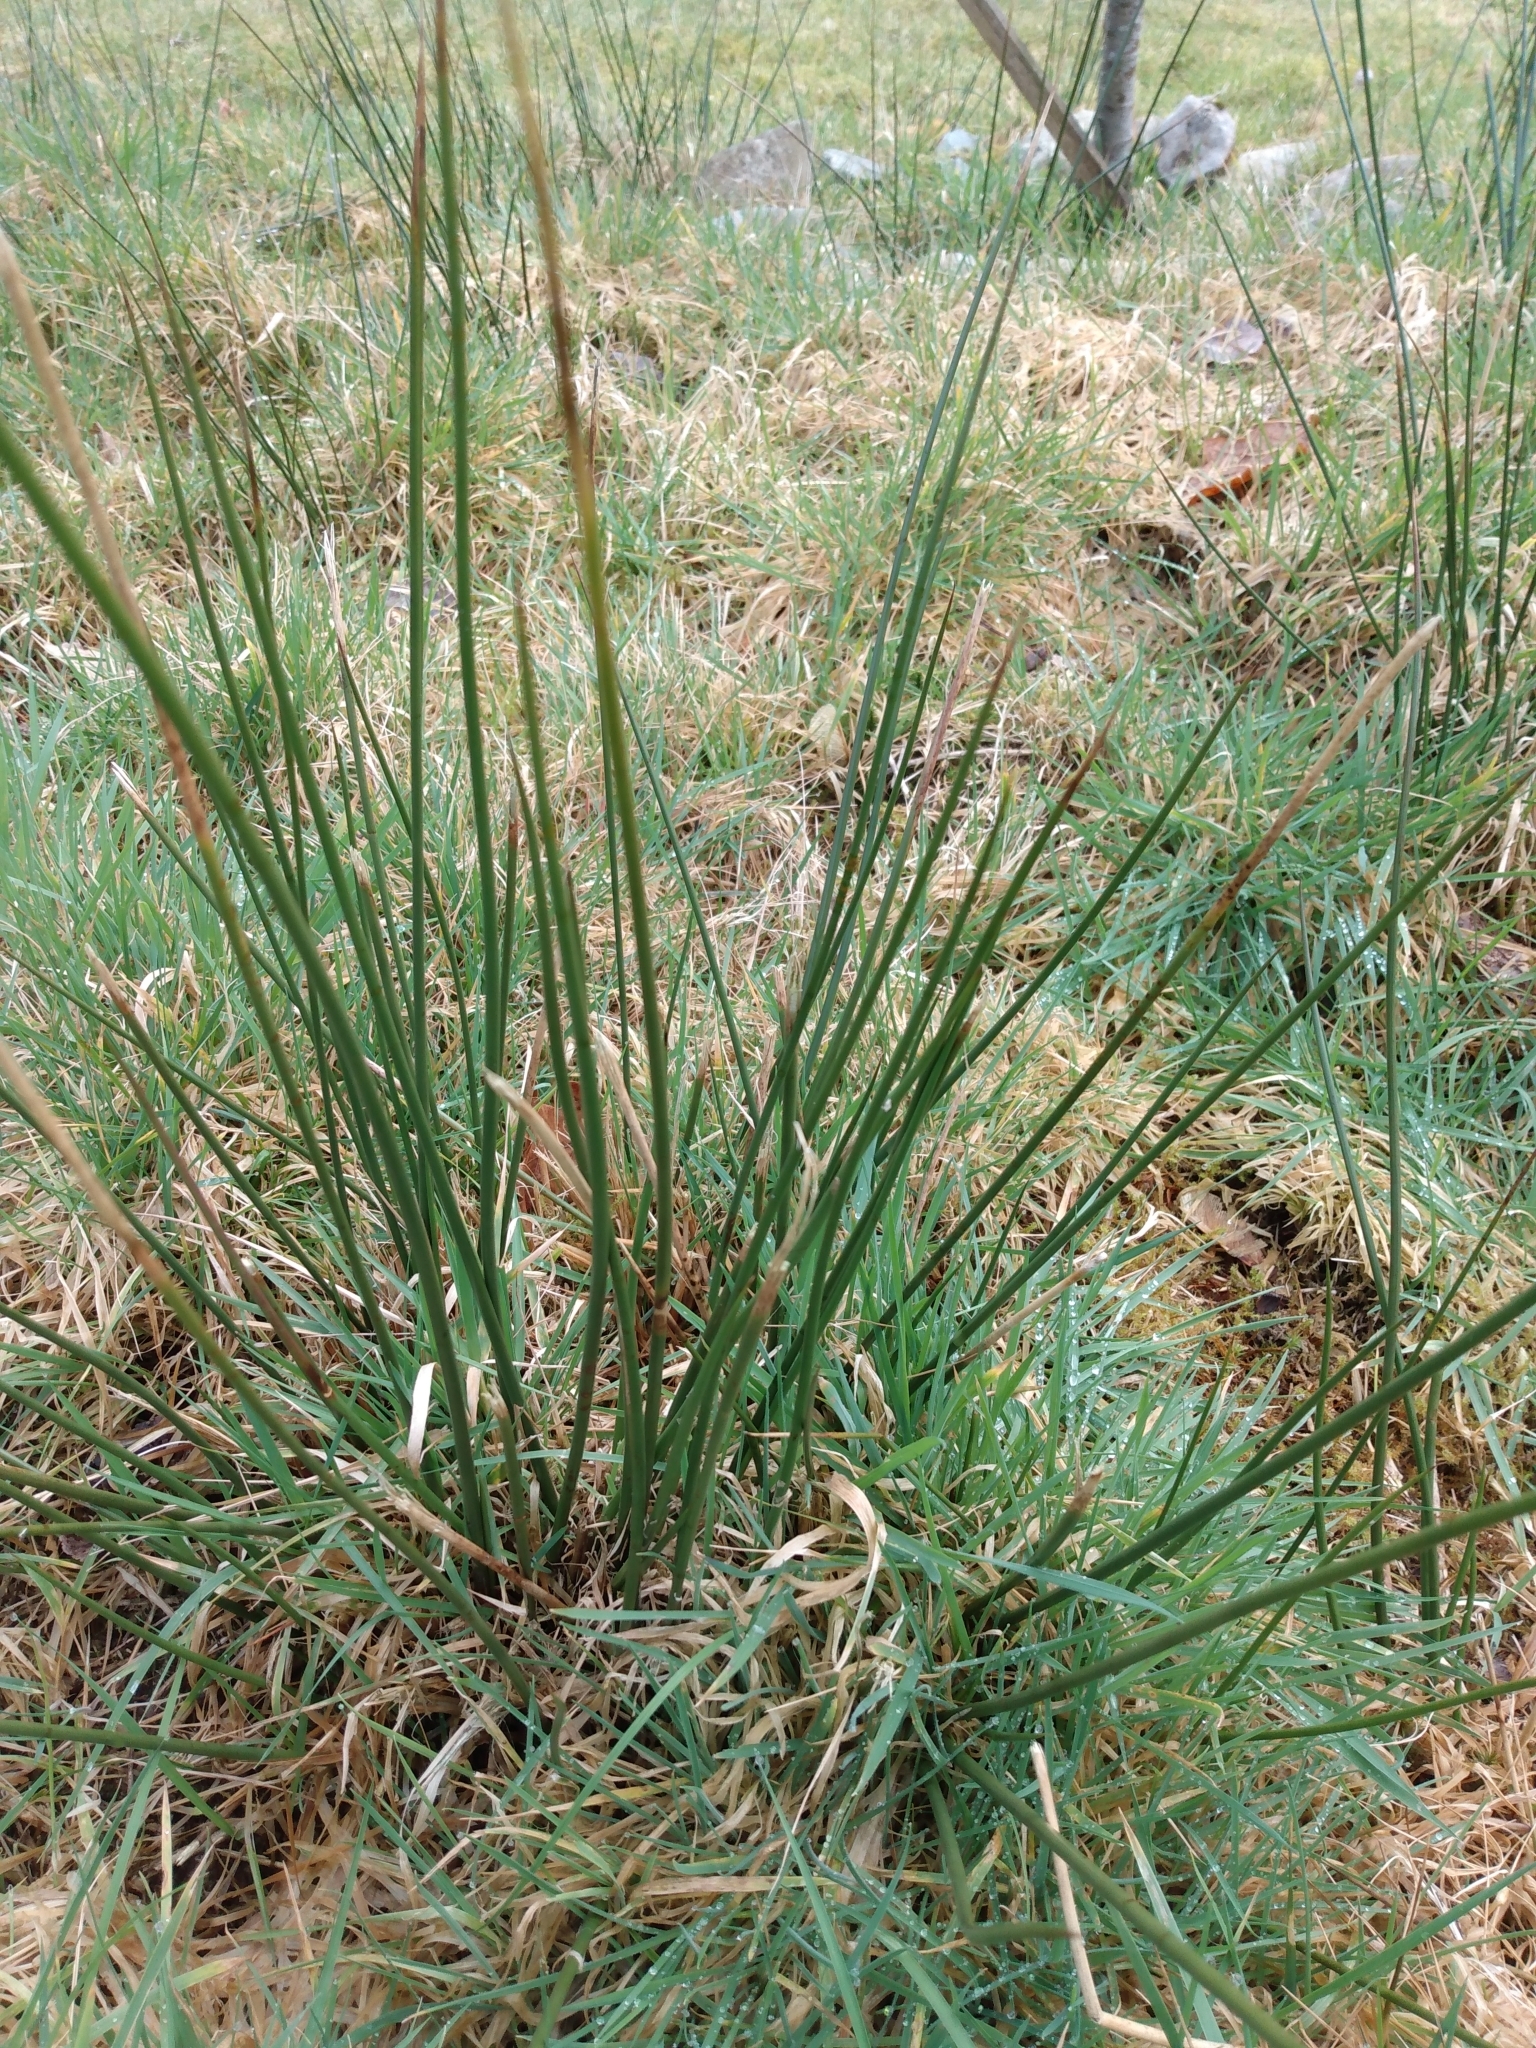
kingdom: Plantae
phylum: Tracheophyta
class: Liliopsida
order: Poales
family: Juncaceae
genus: Juncus
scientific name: Juncus effusus
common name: Soft rush
